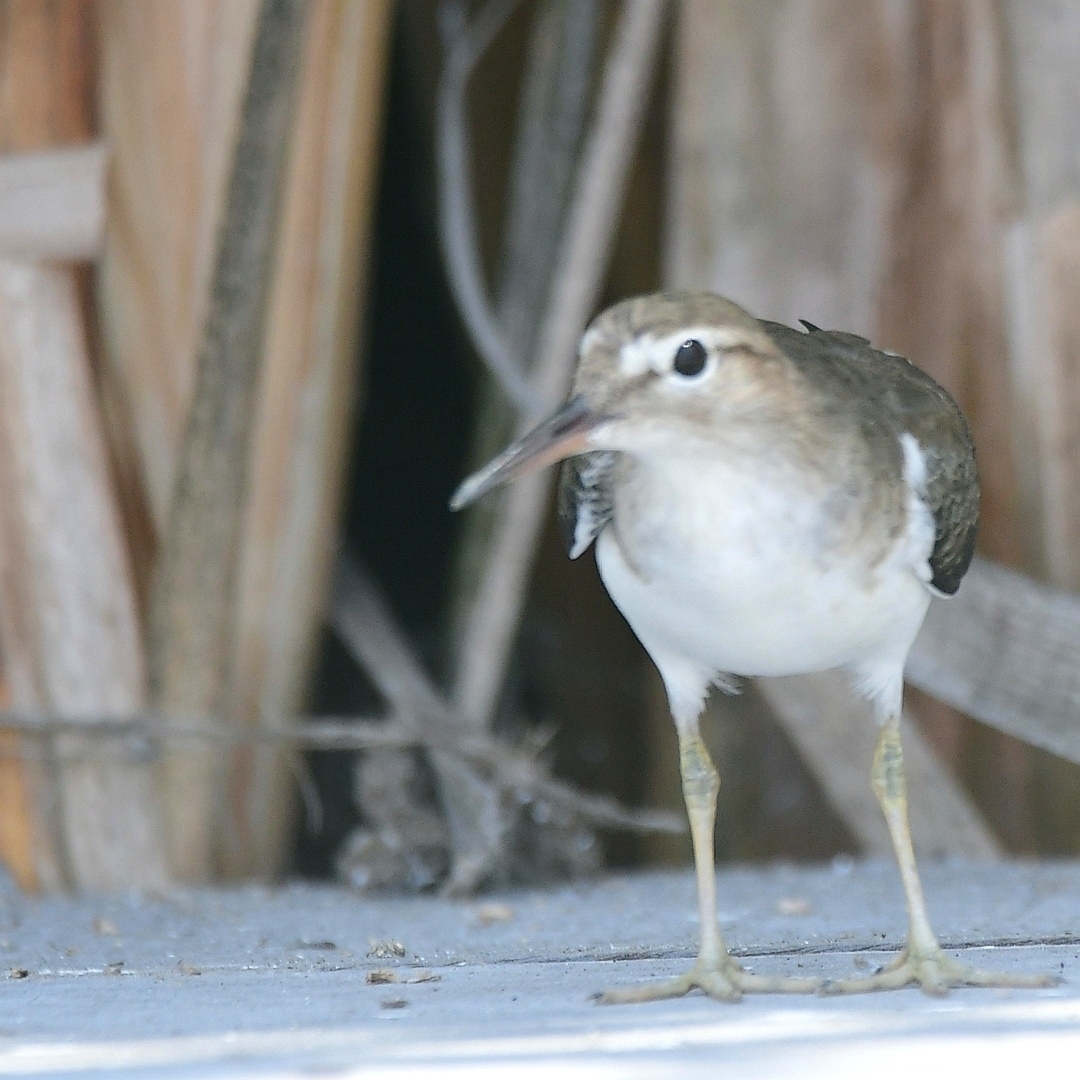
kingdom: Animalia
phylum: Chordata
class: Aves
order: Charadriiformes
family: Scolopacidae
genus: Actitis
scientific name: Actitis macularius
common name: Spotted sandpiper
